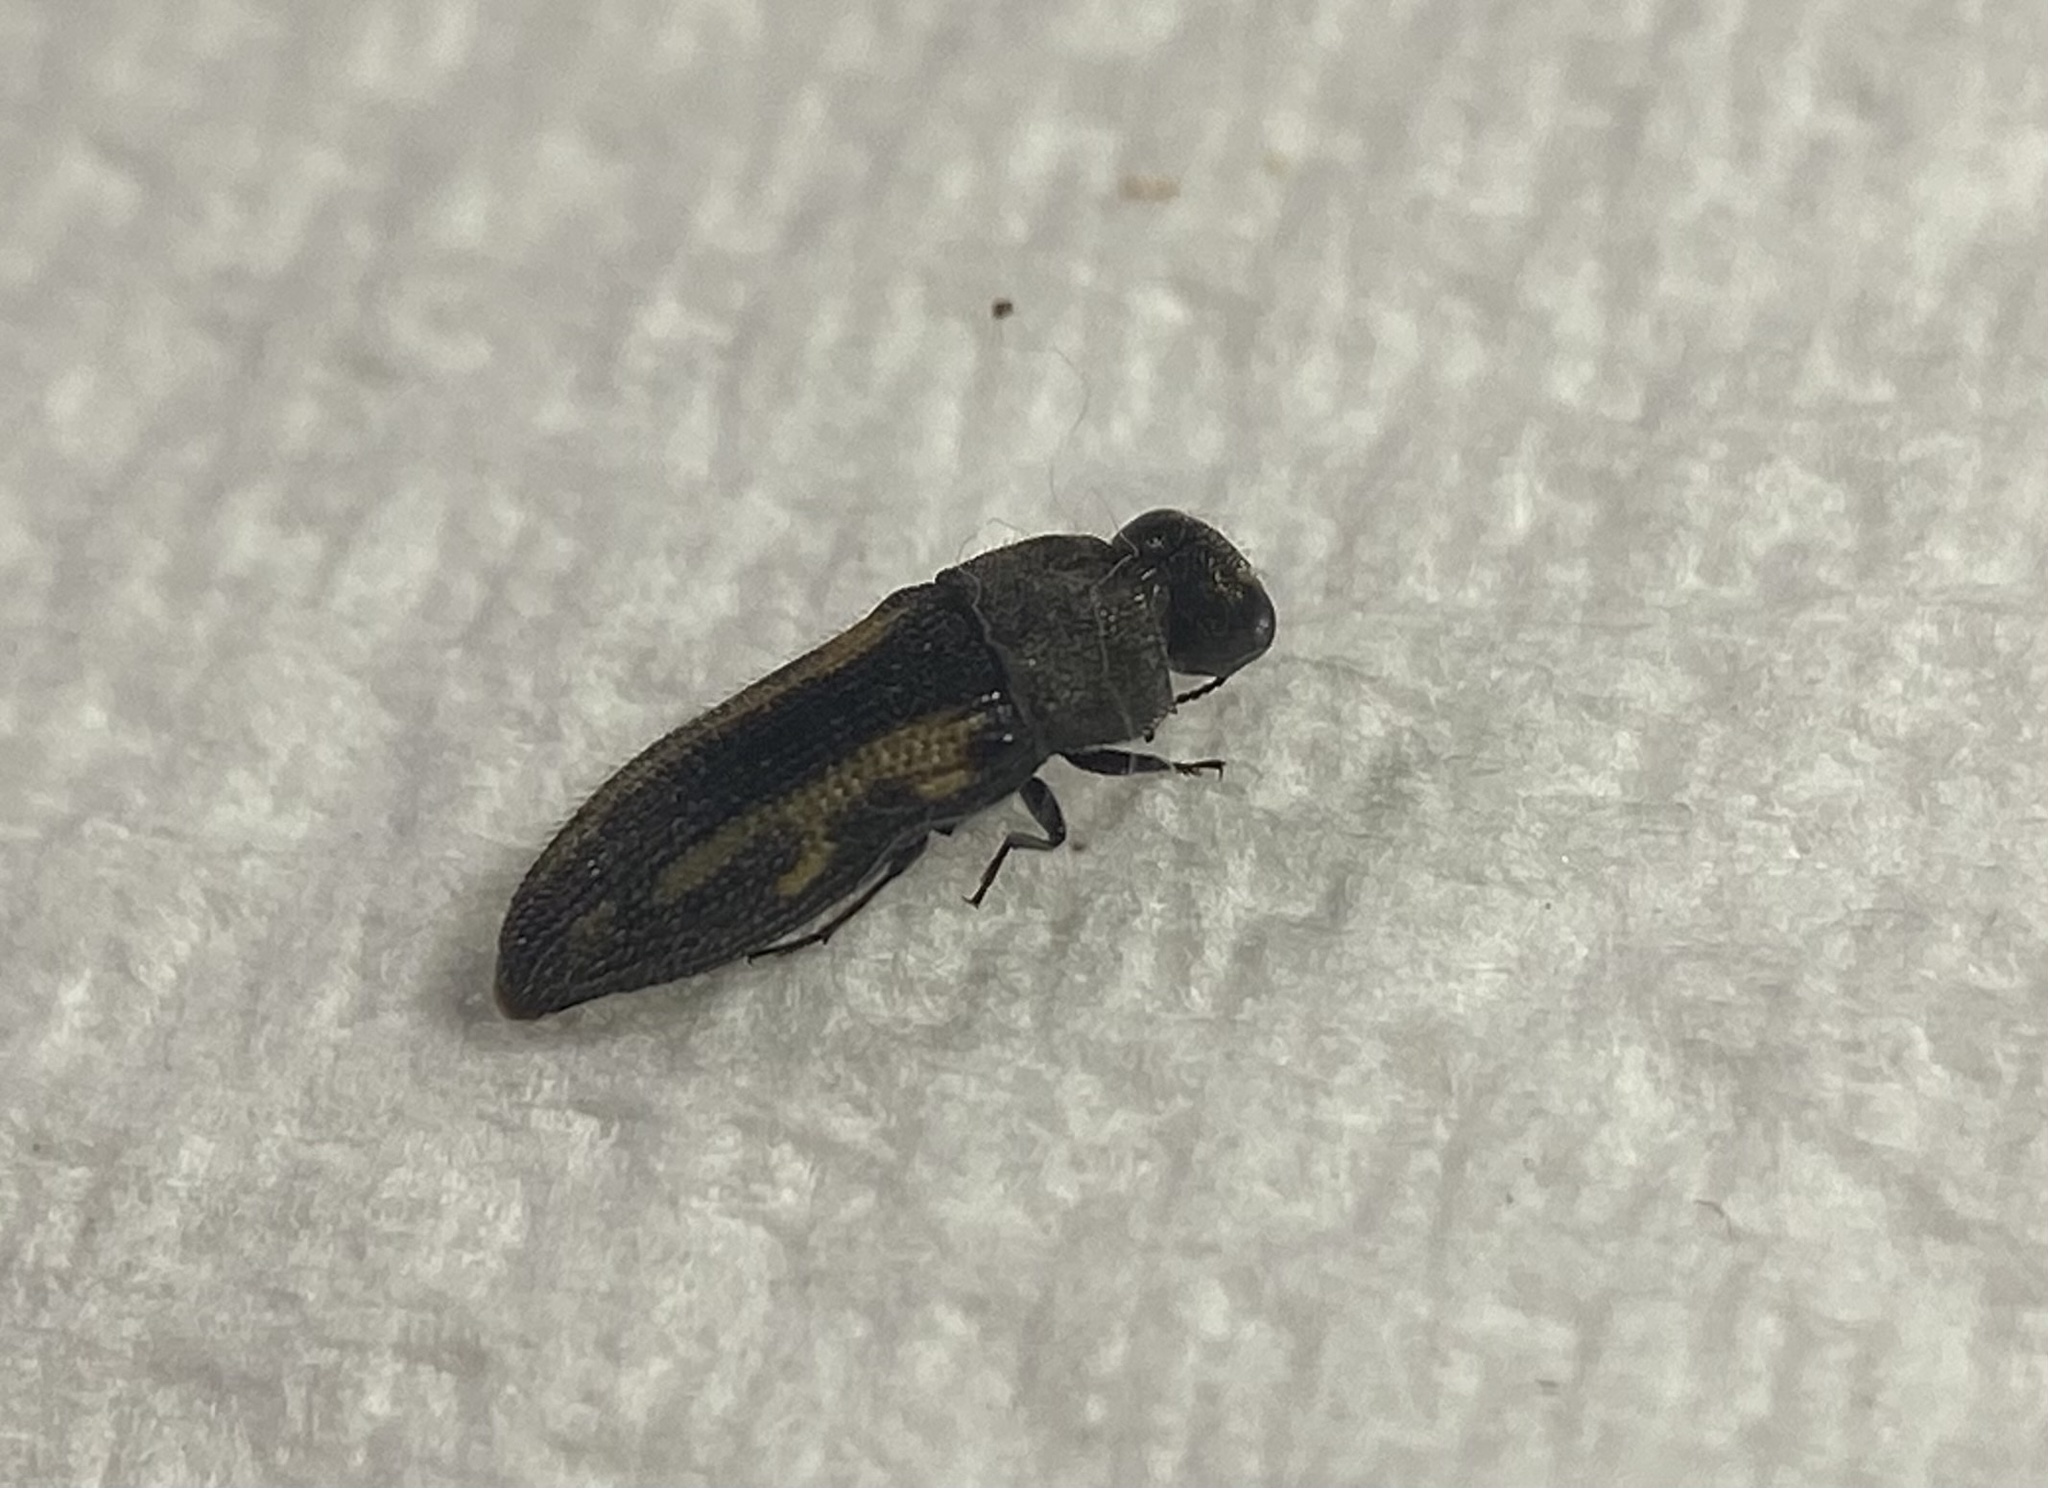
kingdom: Animalia
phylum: Arthropoda
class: Insecta
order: Coleoptera
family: Buprestidae
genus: Acmaeodera
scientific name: Acmaeodera ligulata
